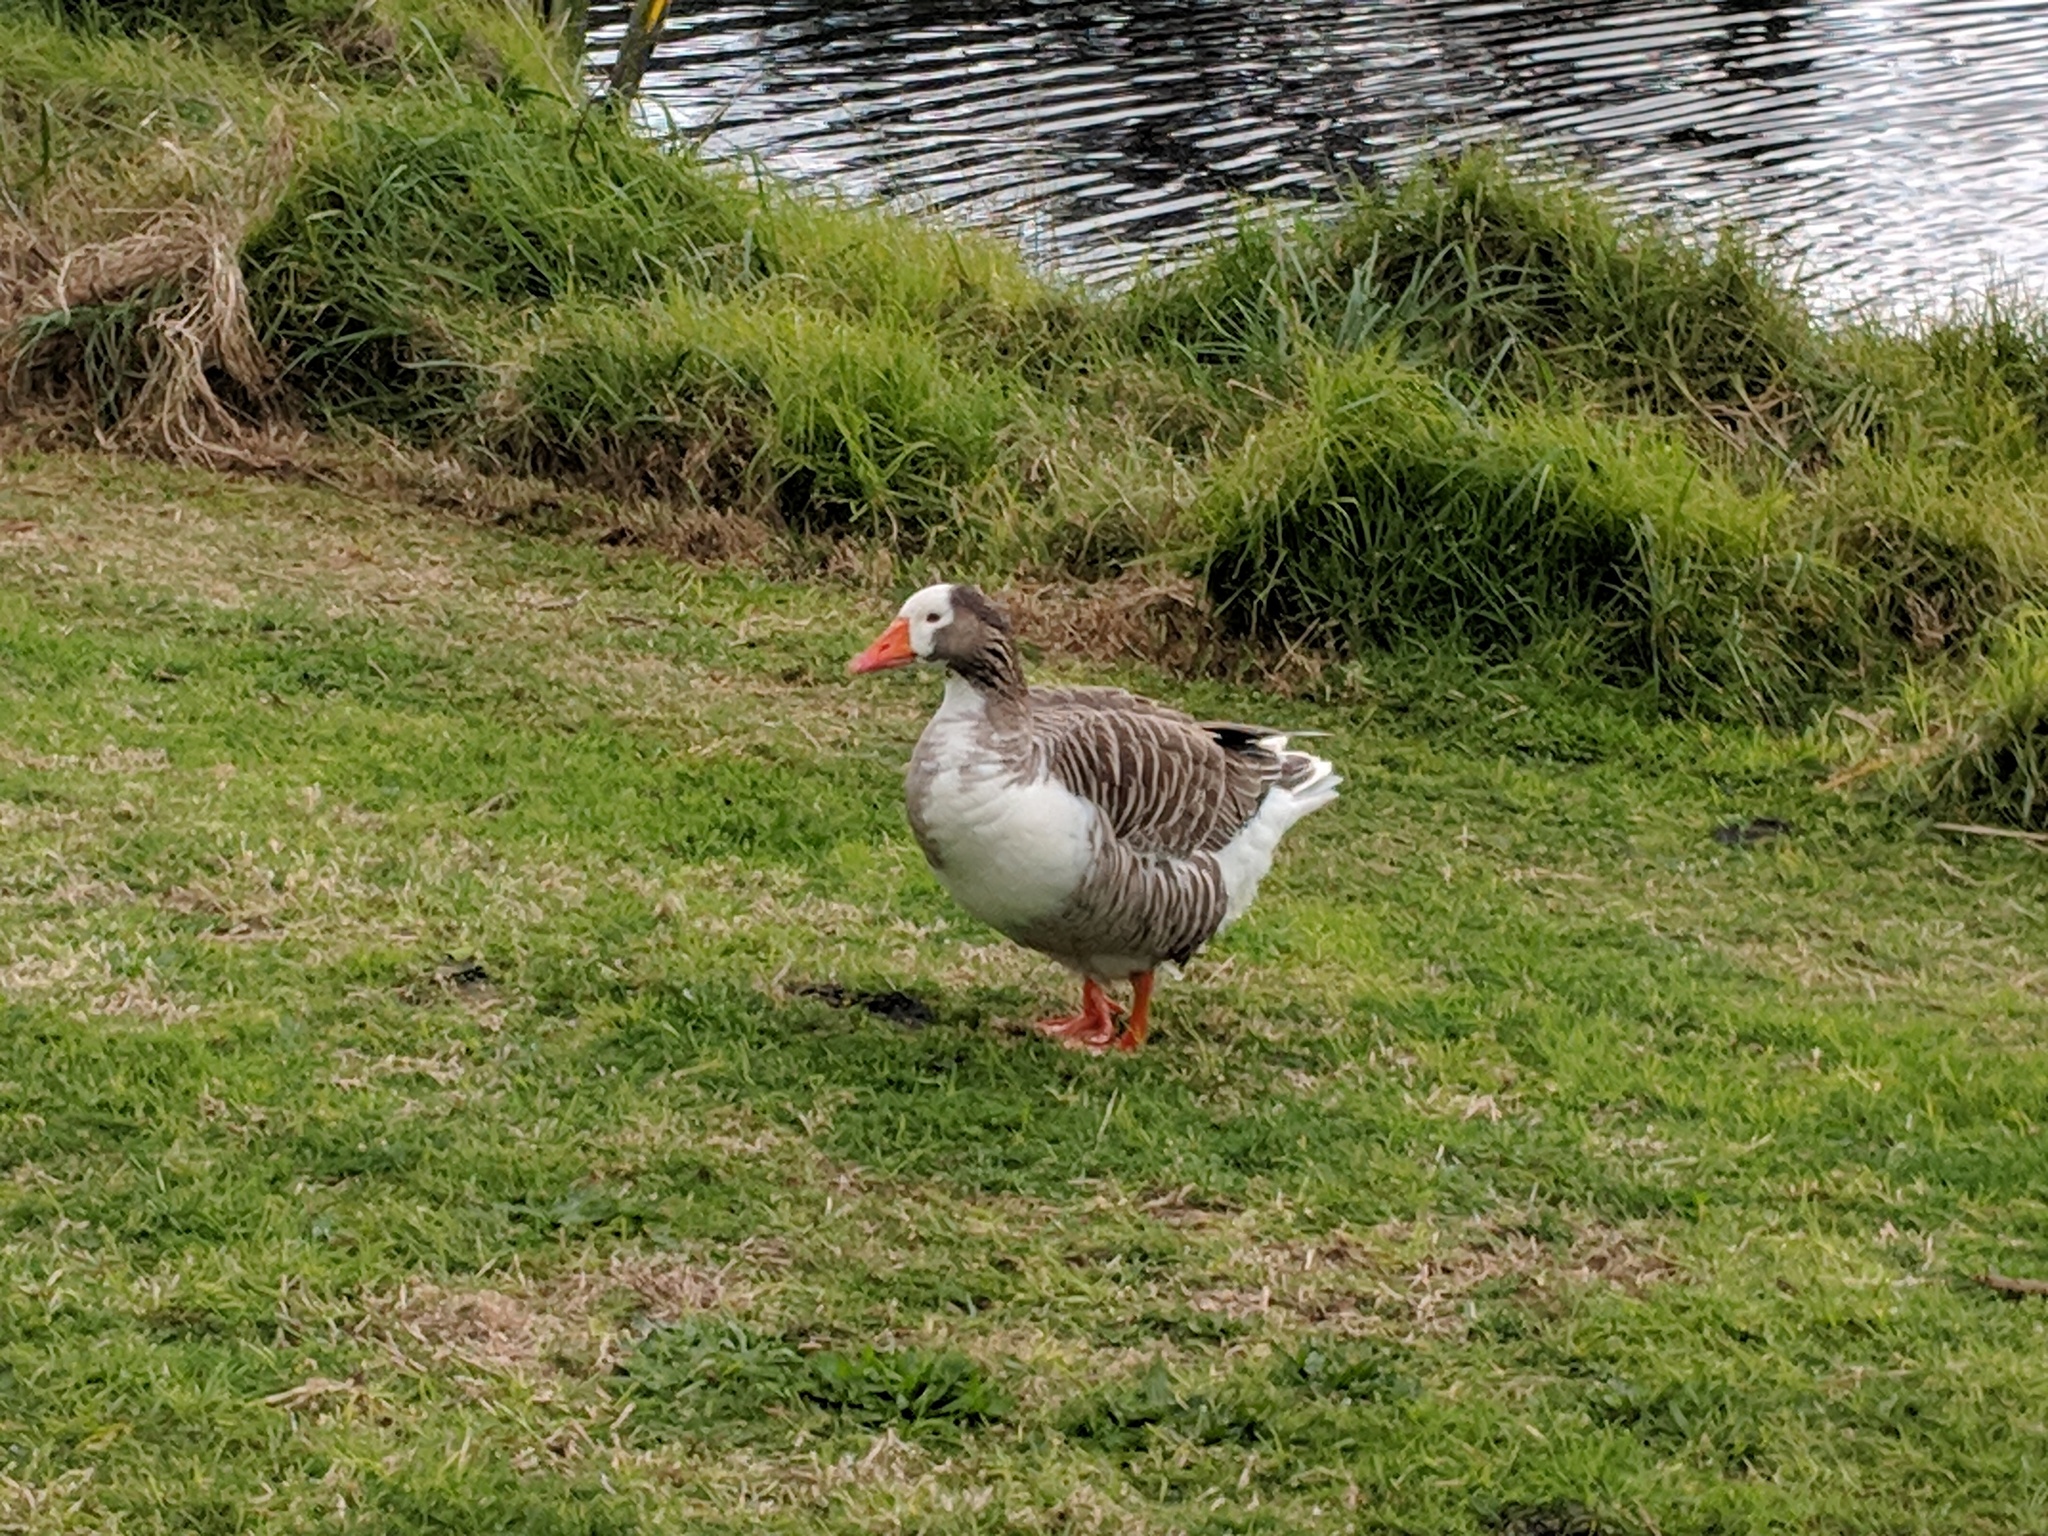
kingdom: Animalia
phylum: Chordata
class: Aves
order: Anseriformes
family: Anatidae
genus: Anser
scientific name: Anser anser
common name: Greylag goose
